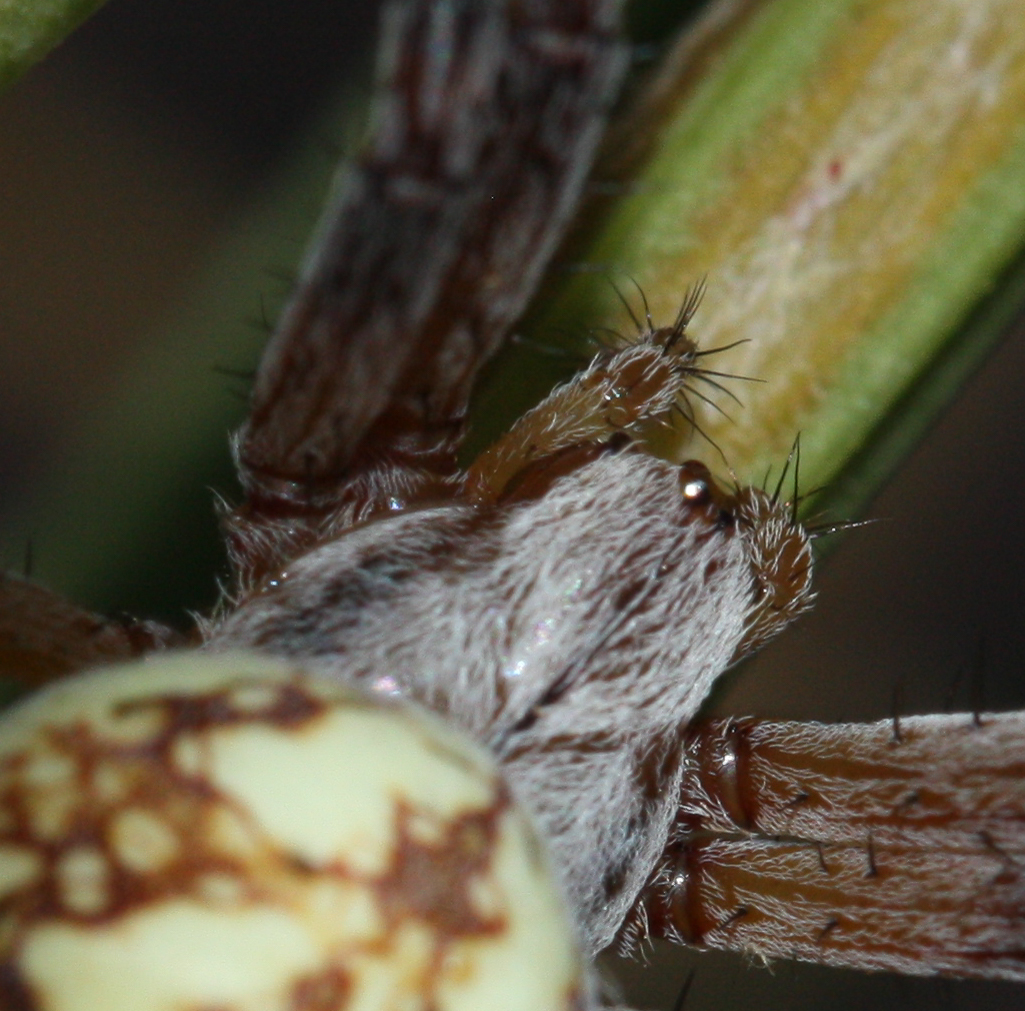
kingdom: Animalia
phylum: Arthropoda
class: Arachnida
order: Araneae
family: Araneidae
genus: Neoscona
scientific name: Neoscona oaxacensis
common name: Orb weavers
